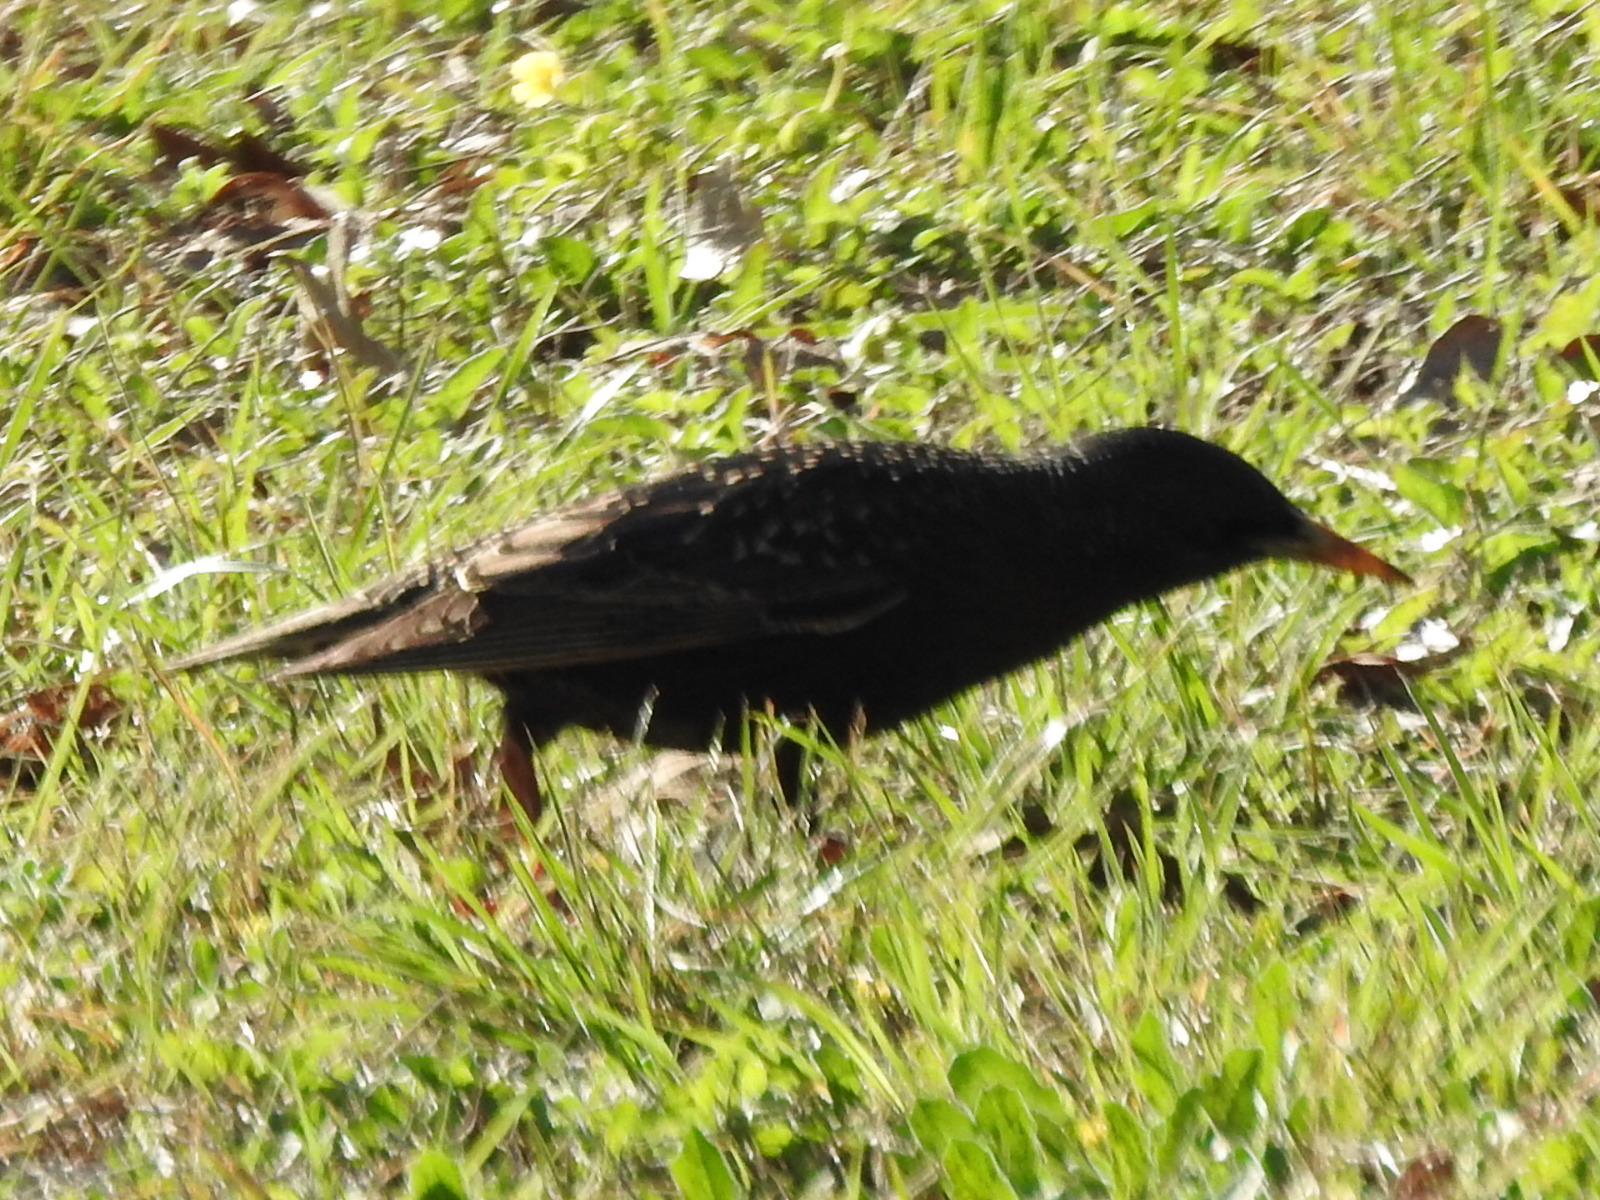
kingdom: Animalia
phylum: Chordata
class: Aves
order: Passeriformes
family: Sturnidae
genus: Sturnus
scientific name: Sturnus vulgaris
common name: Common starling
